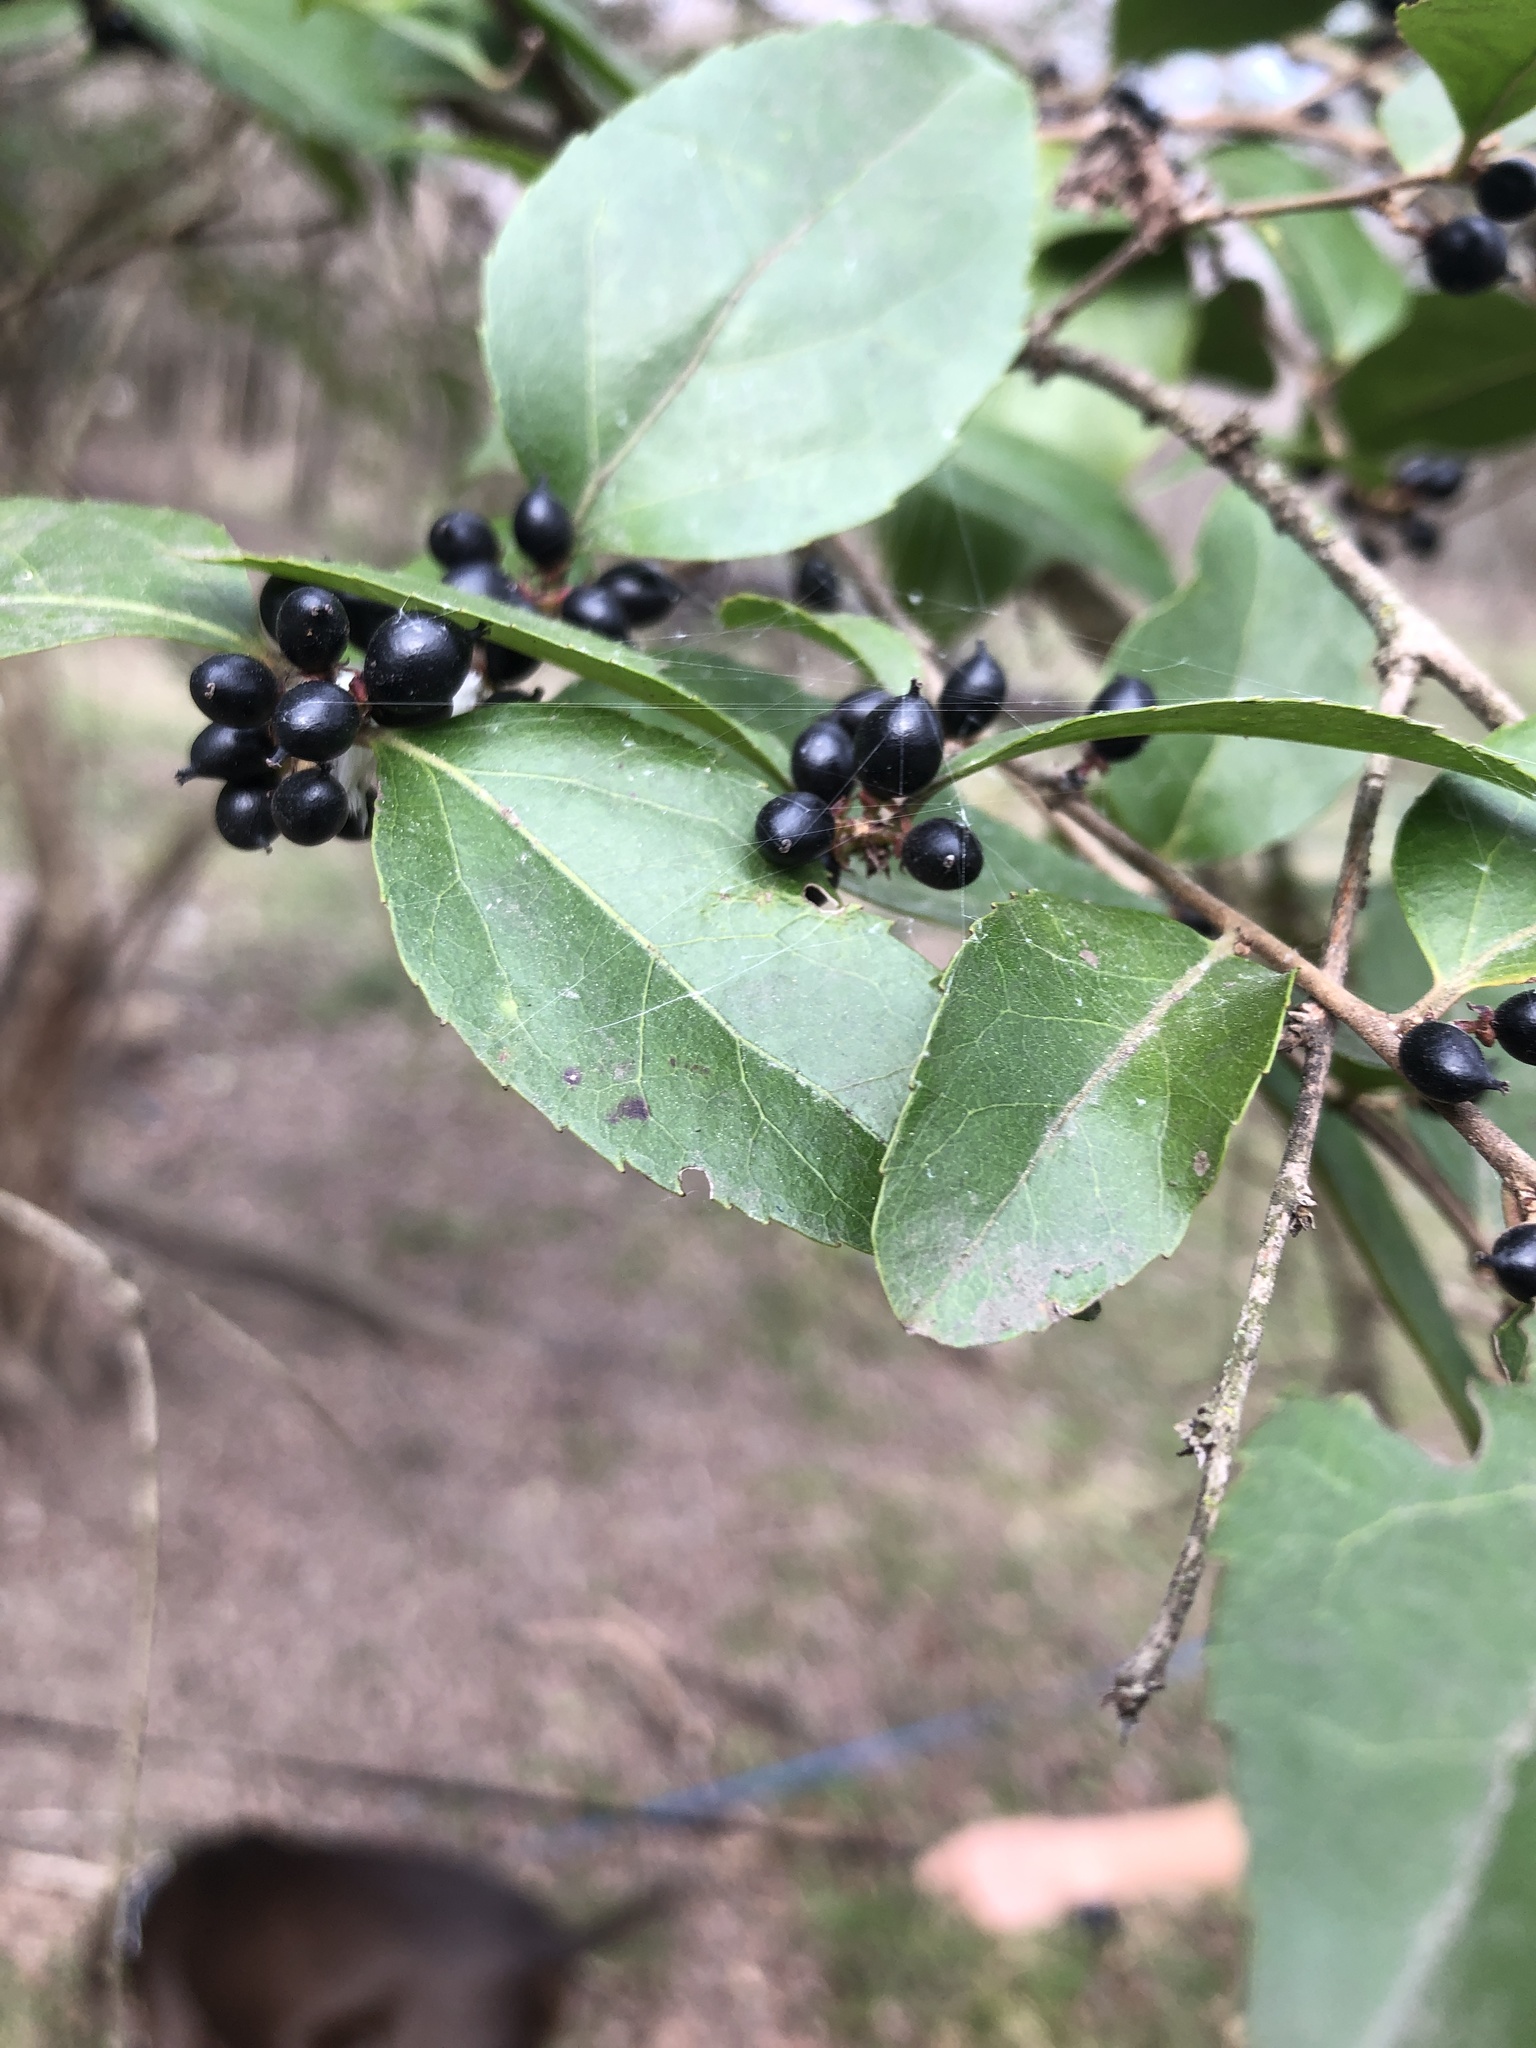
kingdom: Plantae
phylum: Tracheophyta
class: Magnoliopsida
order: Malpighiales
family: Salicaceae
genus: Xylosma
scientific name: Xylosma racemosum
